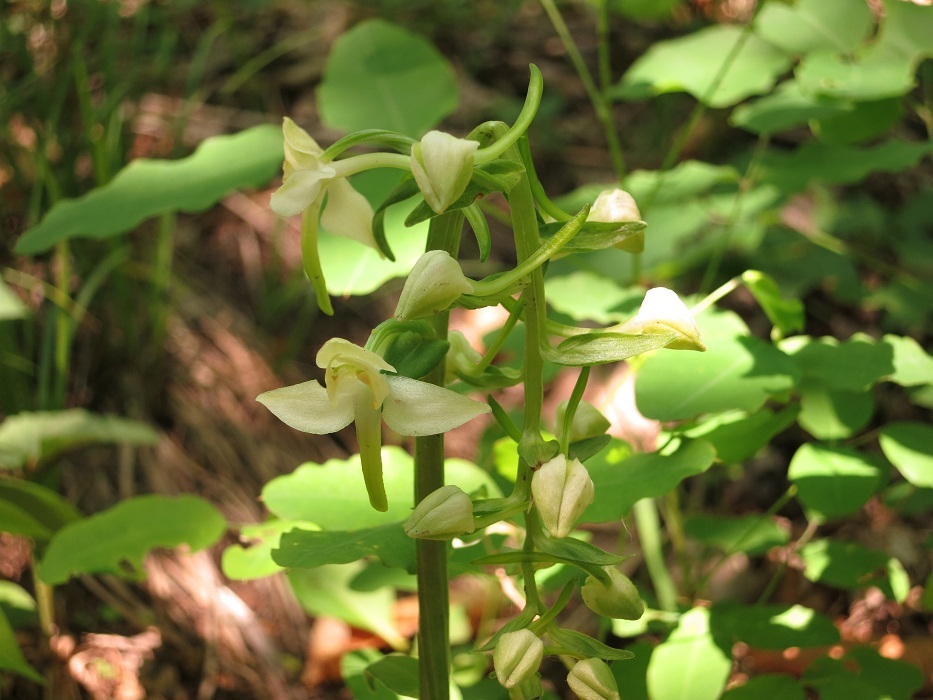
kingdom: Plantae
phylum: Tracheophyta
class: Liliopsida
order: Asparagales
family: Orchidaceae
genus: Platanthera
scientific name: Platanthera densa
